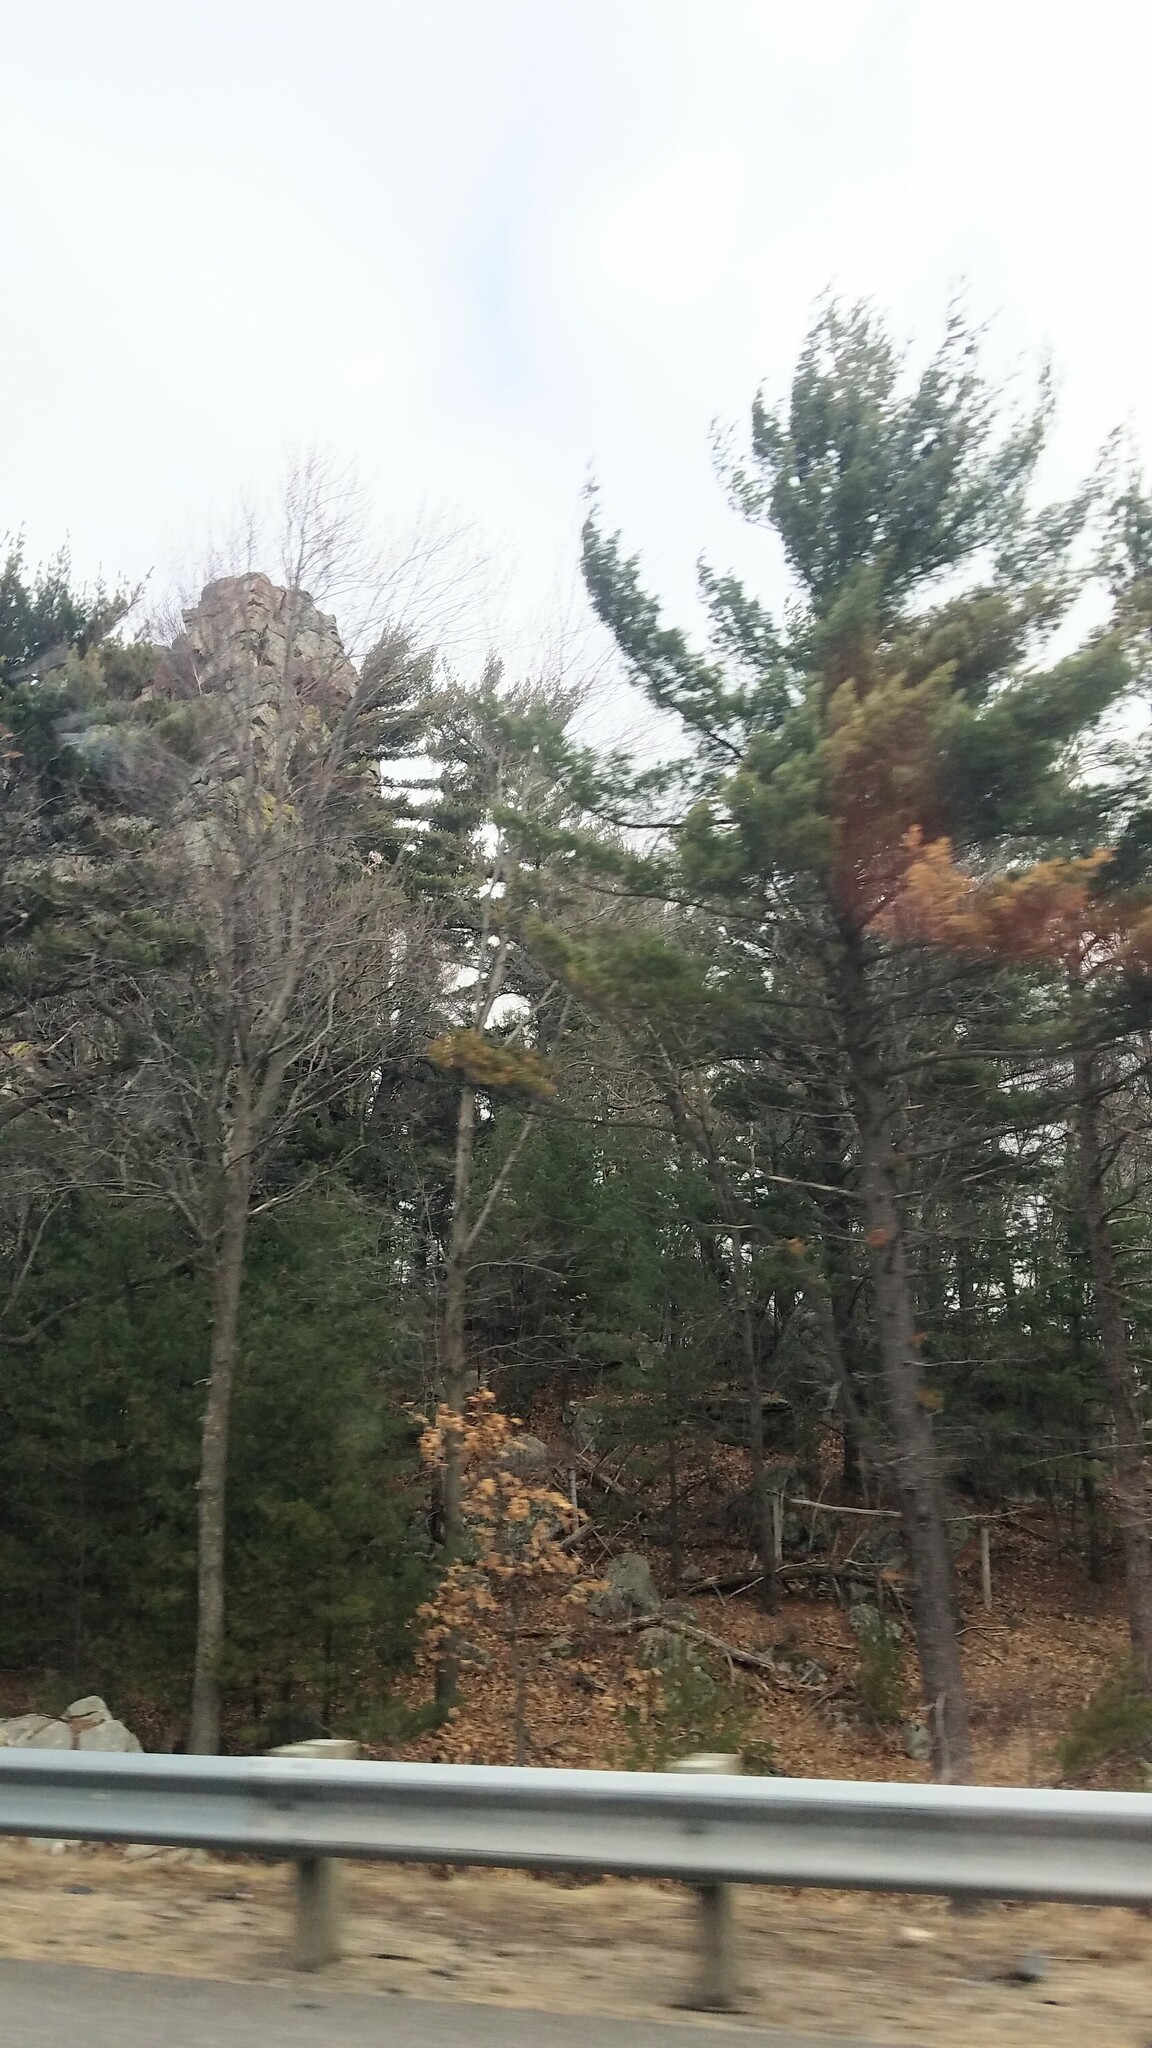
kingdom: Plantae
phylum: Tracheophyta
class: Pinopsida
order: Pinales
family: Pinaceae
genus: Pinus
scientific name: Pinus strobus
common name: Weymouth pine
